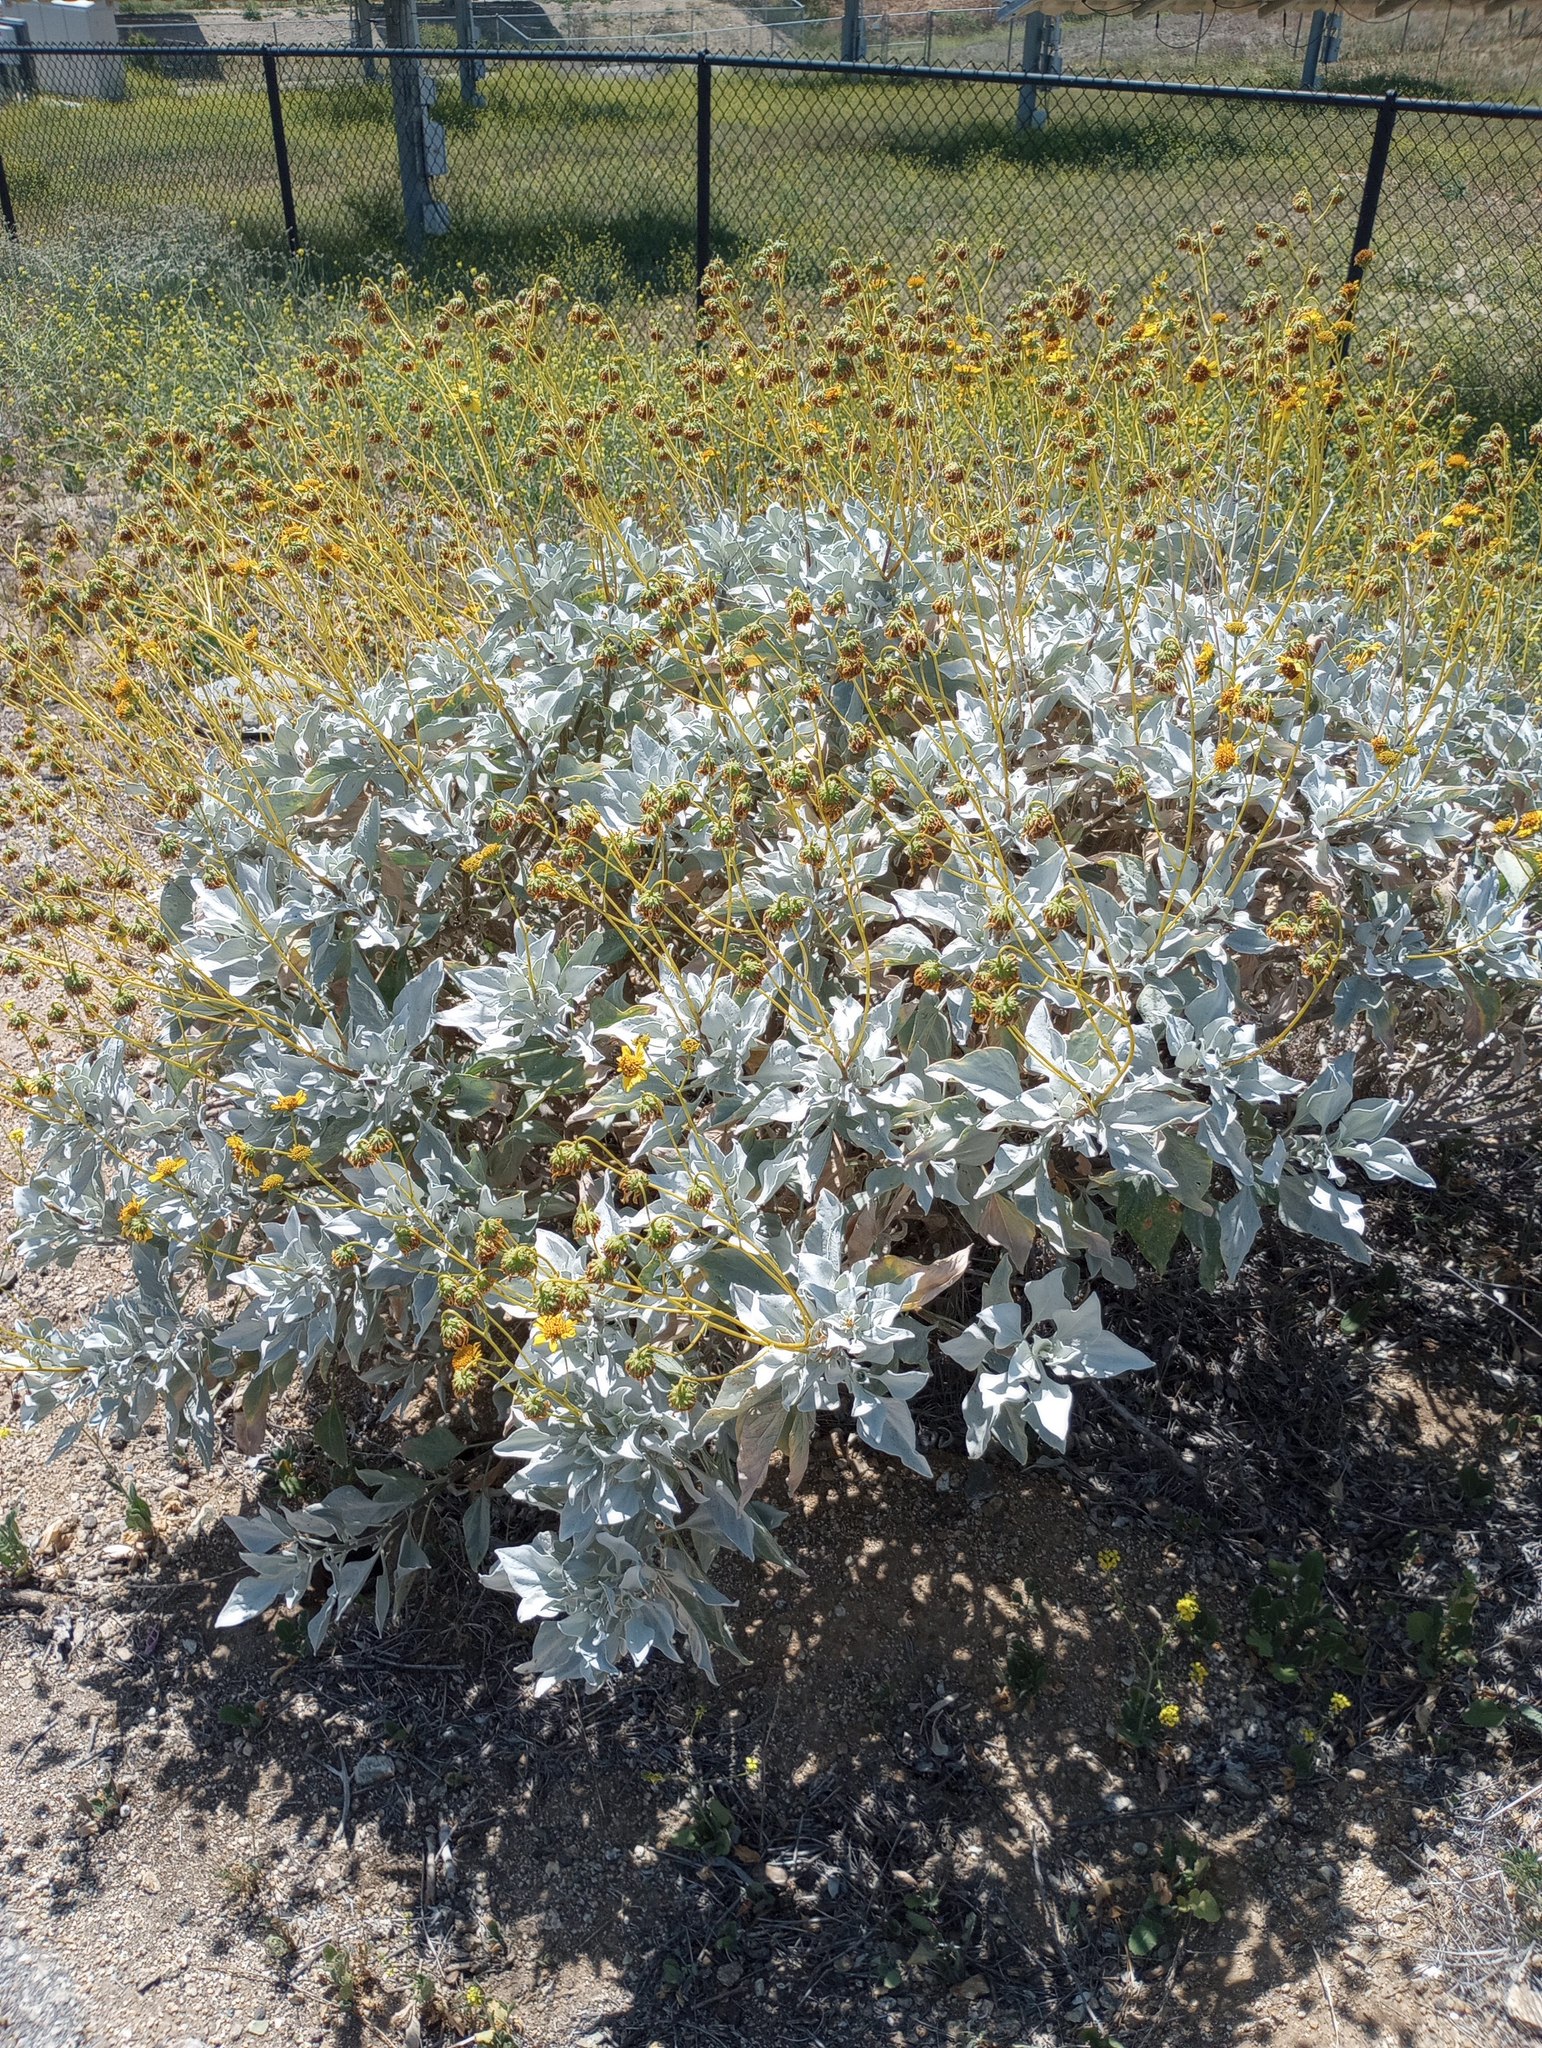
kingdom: Plantae
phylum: Tracheophyta
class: Magnoliopsida
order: Asterales
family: Asteraceae
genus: Encelia
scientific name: Encelia farinosa
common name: Brittlebush
